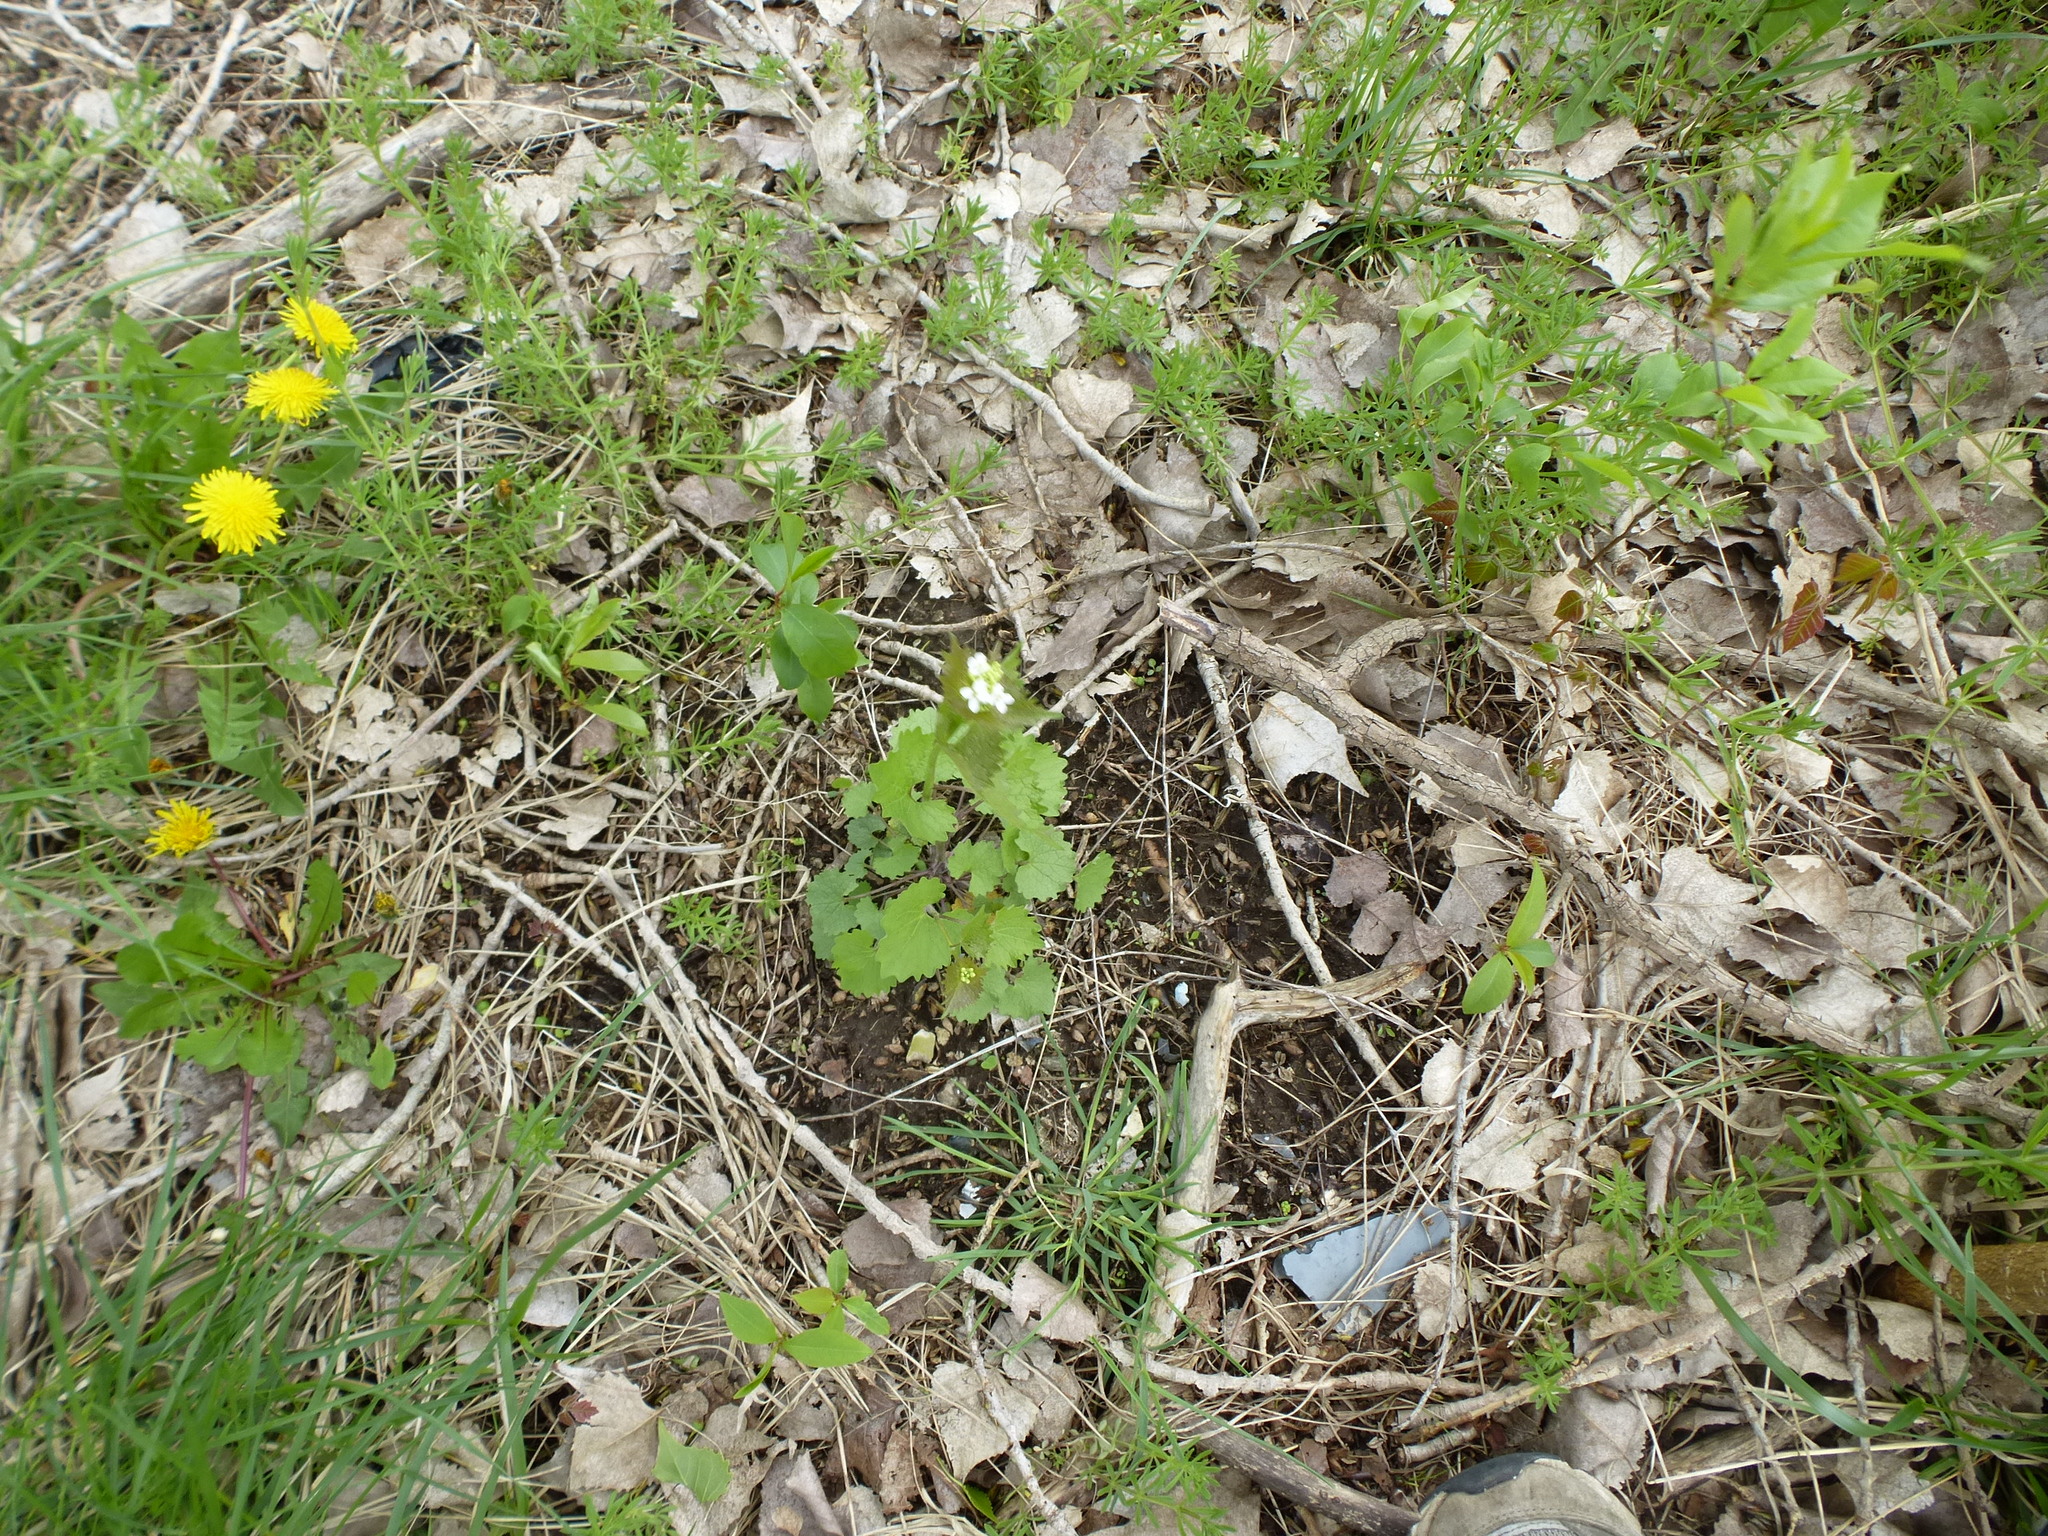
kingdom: Plantae
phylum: Tracheophyta
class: Magnoliopsida
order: Brassicales
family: Brassicaceae
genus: Alliaria
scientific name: Alliaria petiolata
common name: Garlic mustard
